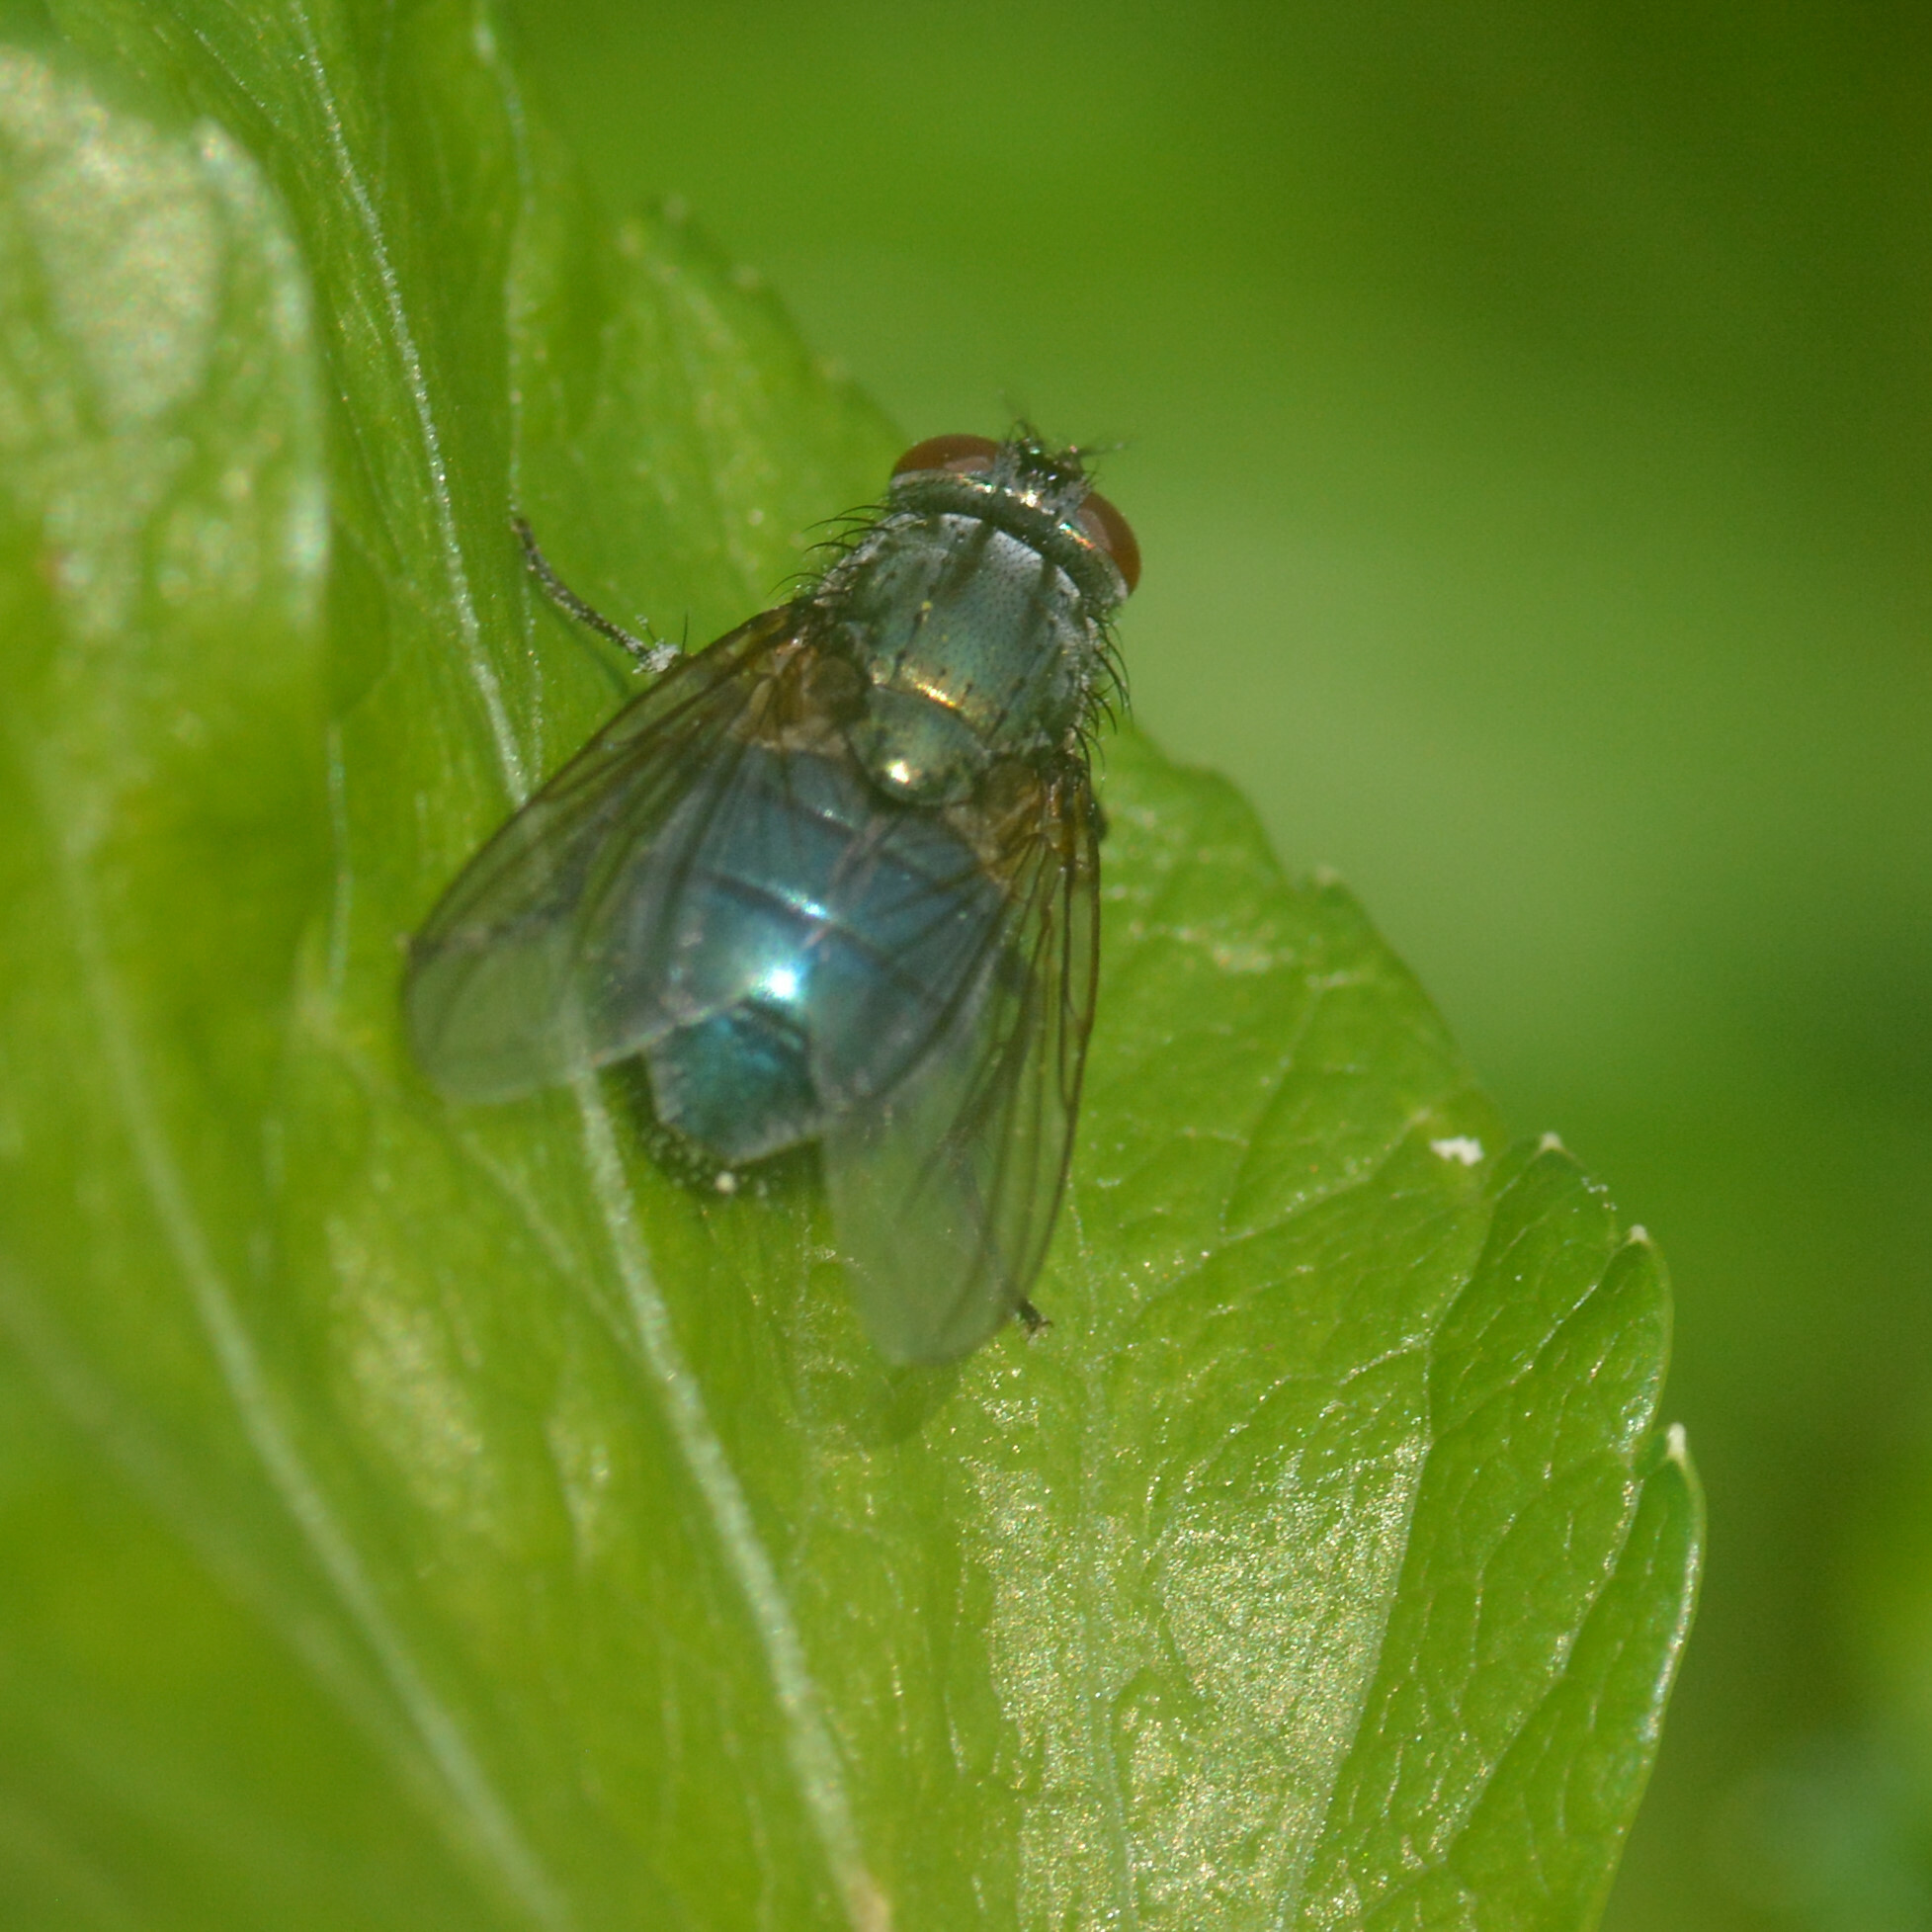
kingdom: Animalia
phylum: Arthropoda
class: Insecta
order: Diptera
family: Muscidae
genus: Dasyphora
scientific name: Dasyphora cyanella
